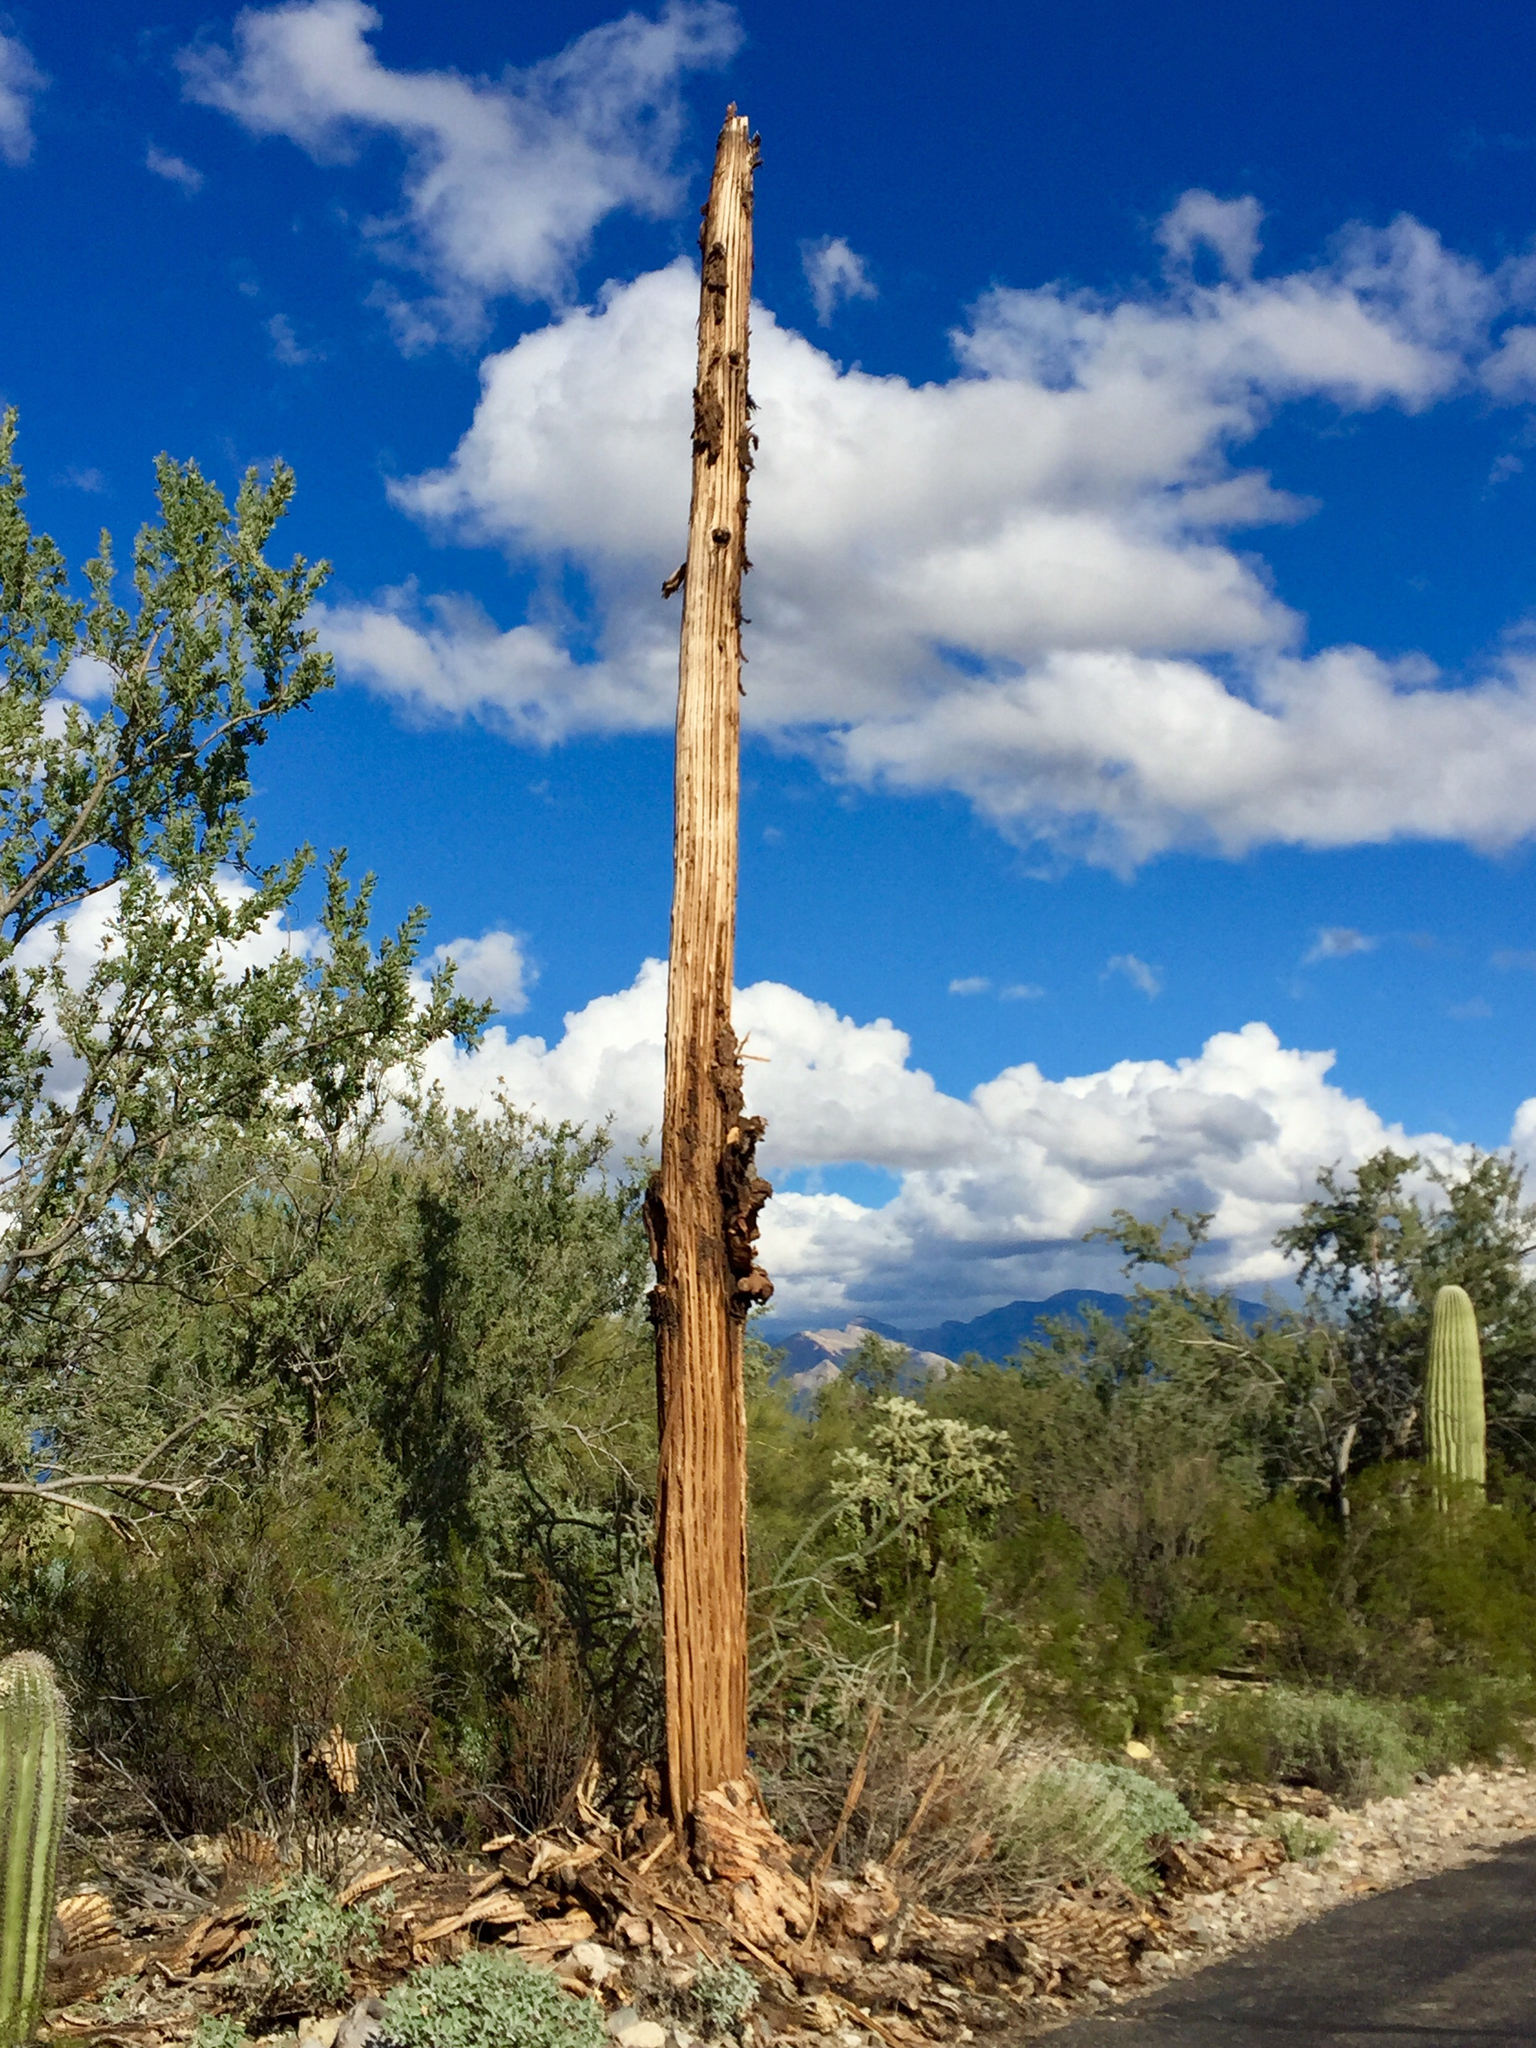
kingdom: Plantae
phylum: Tracheophyta
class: Magnoliopsida
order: Caryophyllales
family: Cactaceae
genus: Carnegiea
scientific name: Carnegiea gigantea
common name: Saguaro
